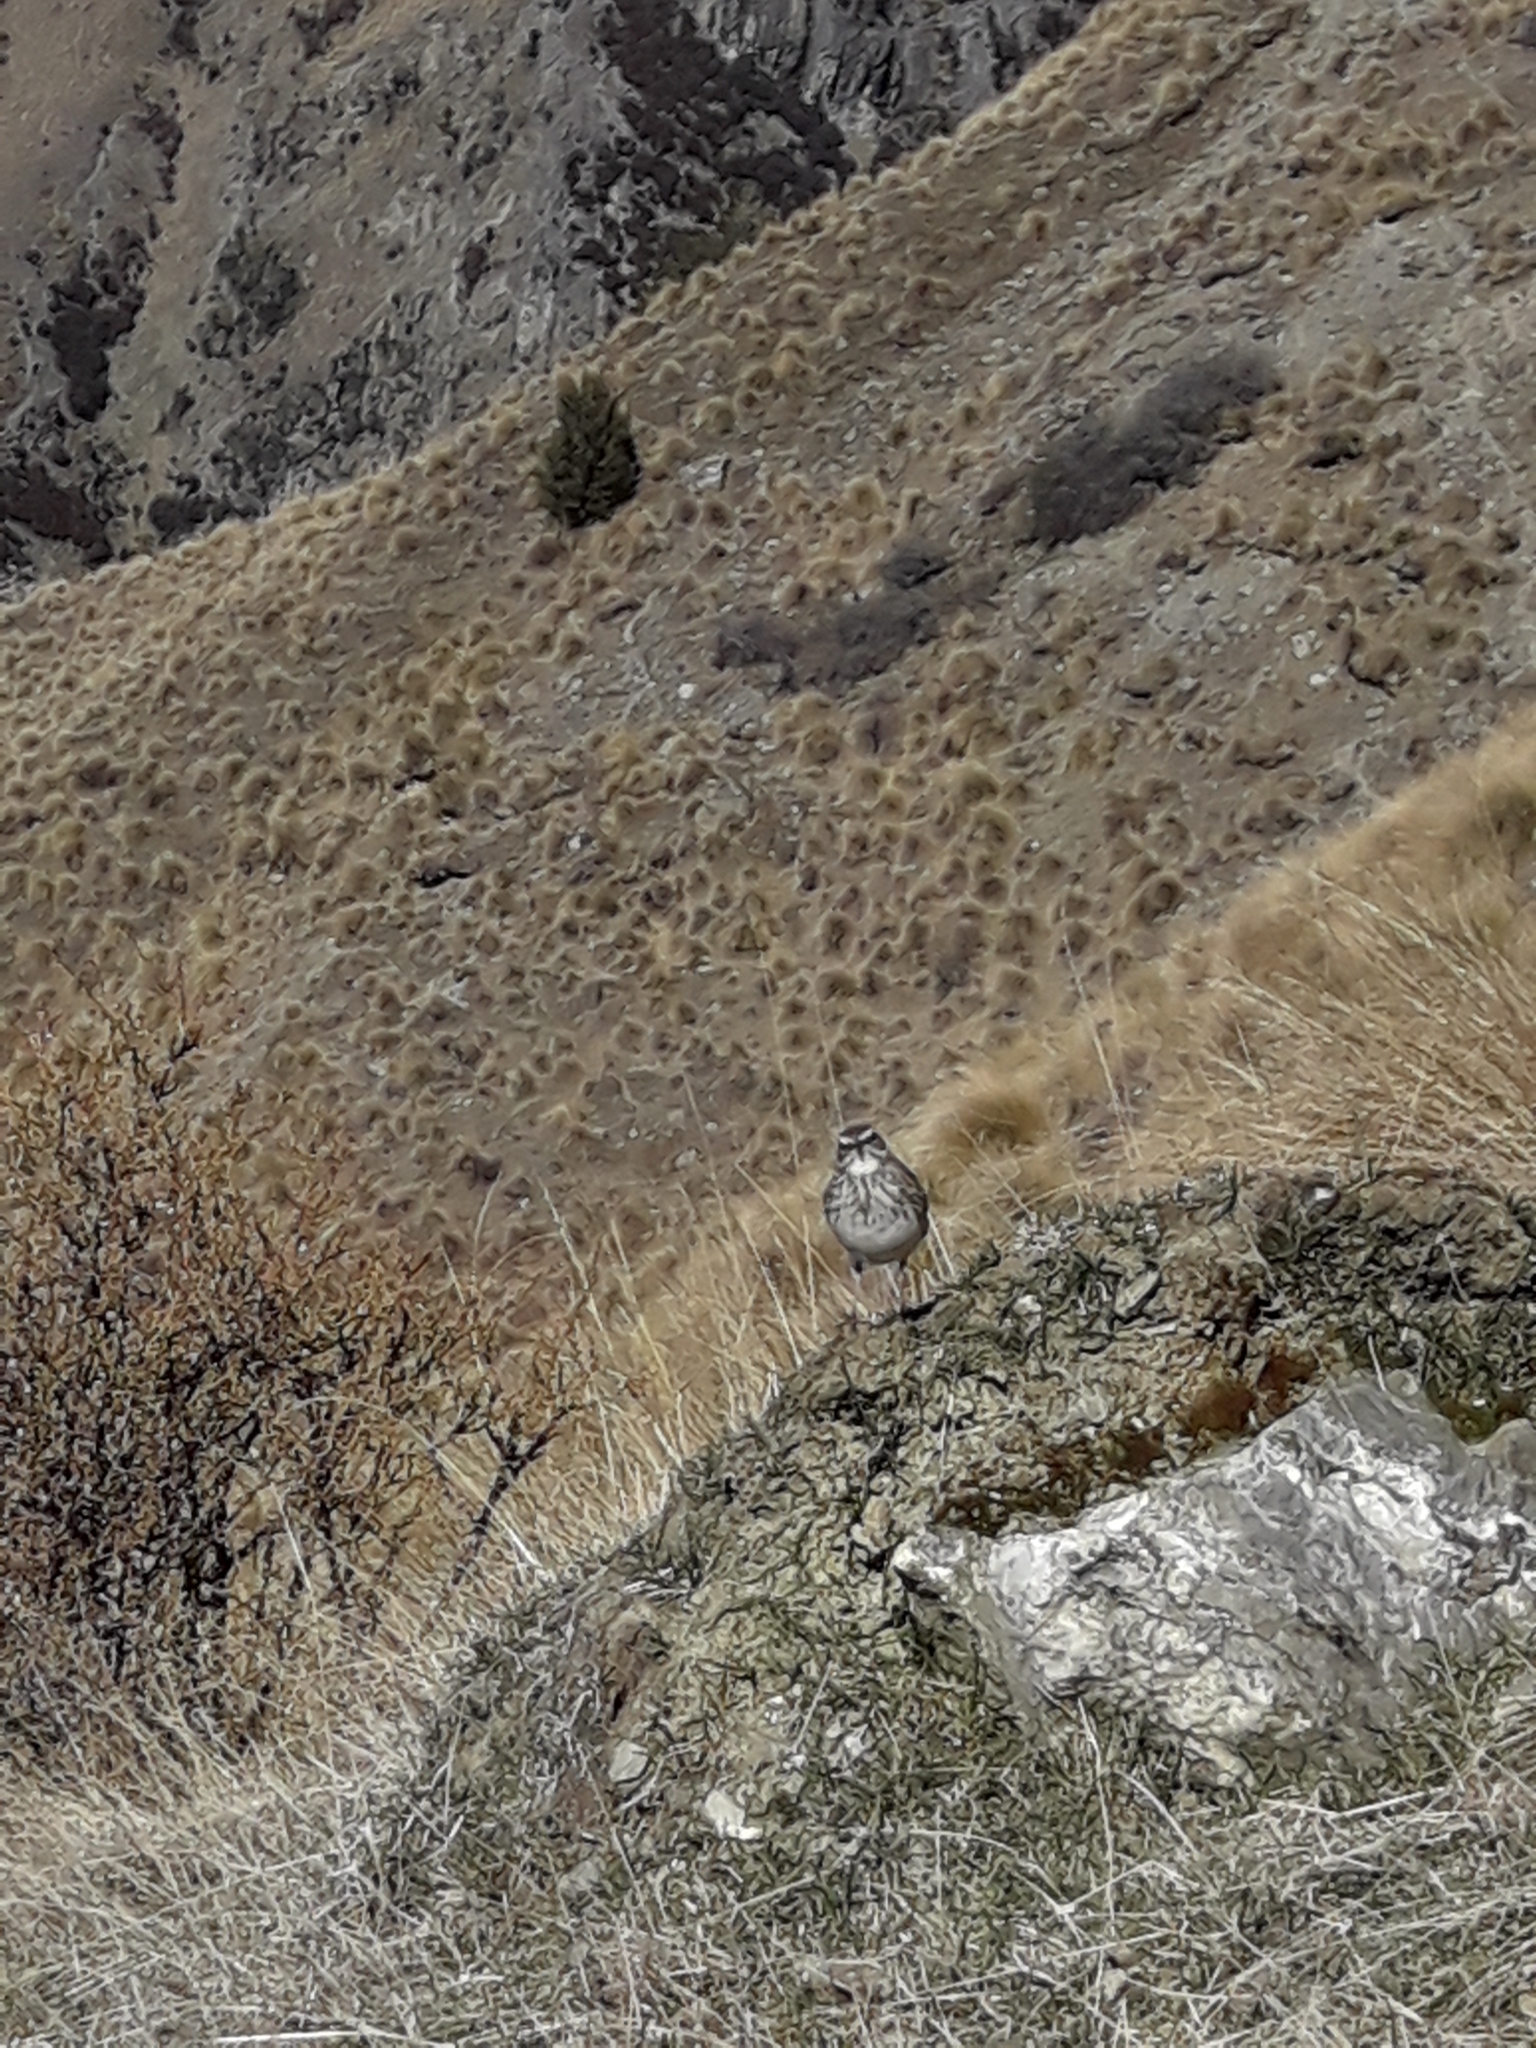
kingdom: Animalia
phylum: Chordata
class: Aves
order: Passeriformes
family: Motacillidae
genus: Anthus
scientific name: Anthus novaeseelandiae
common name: New zealand pipit
